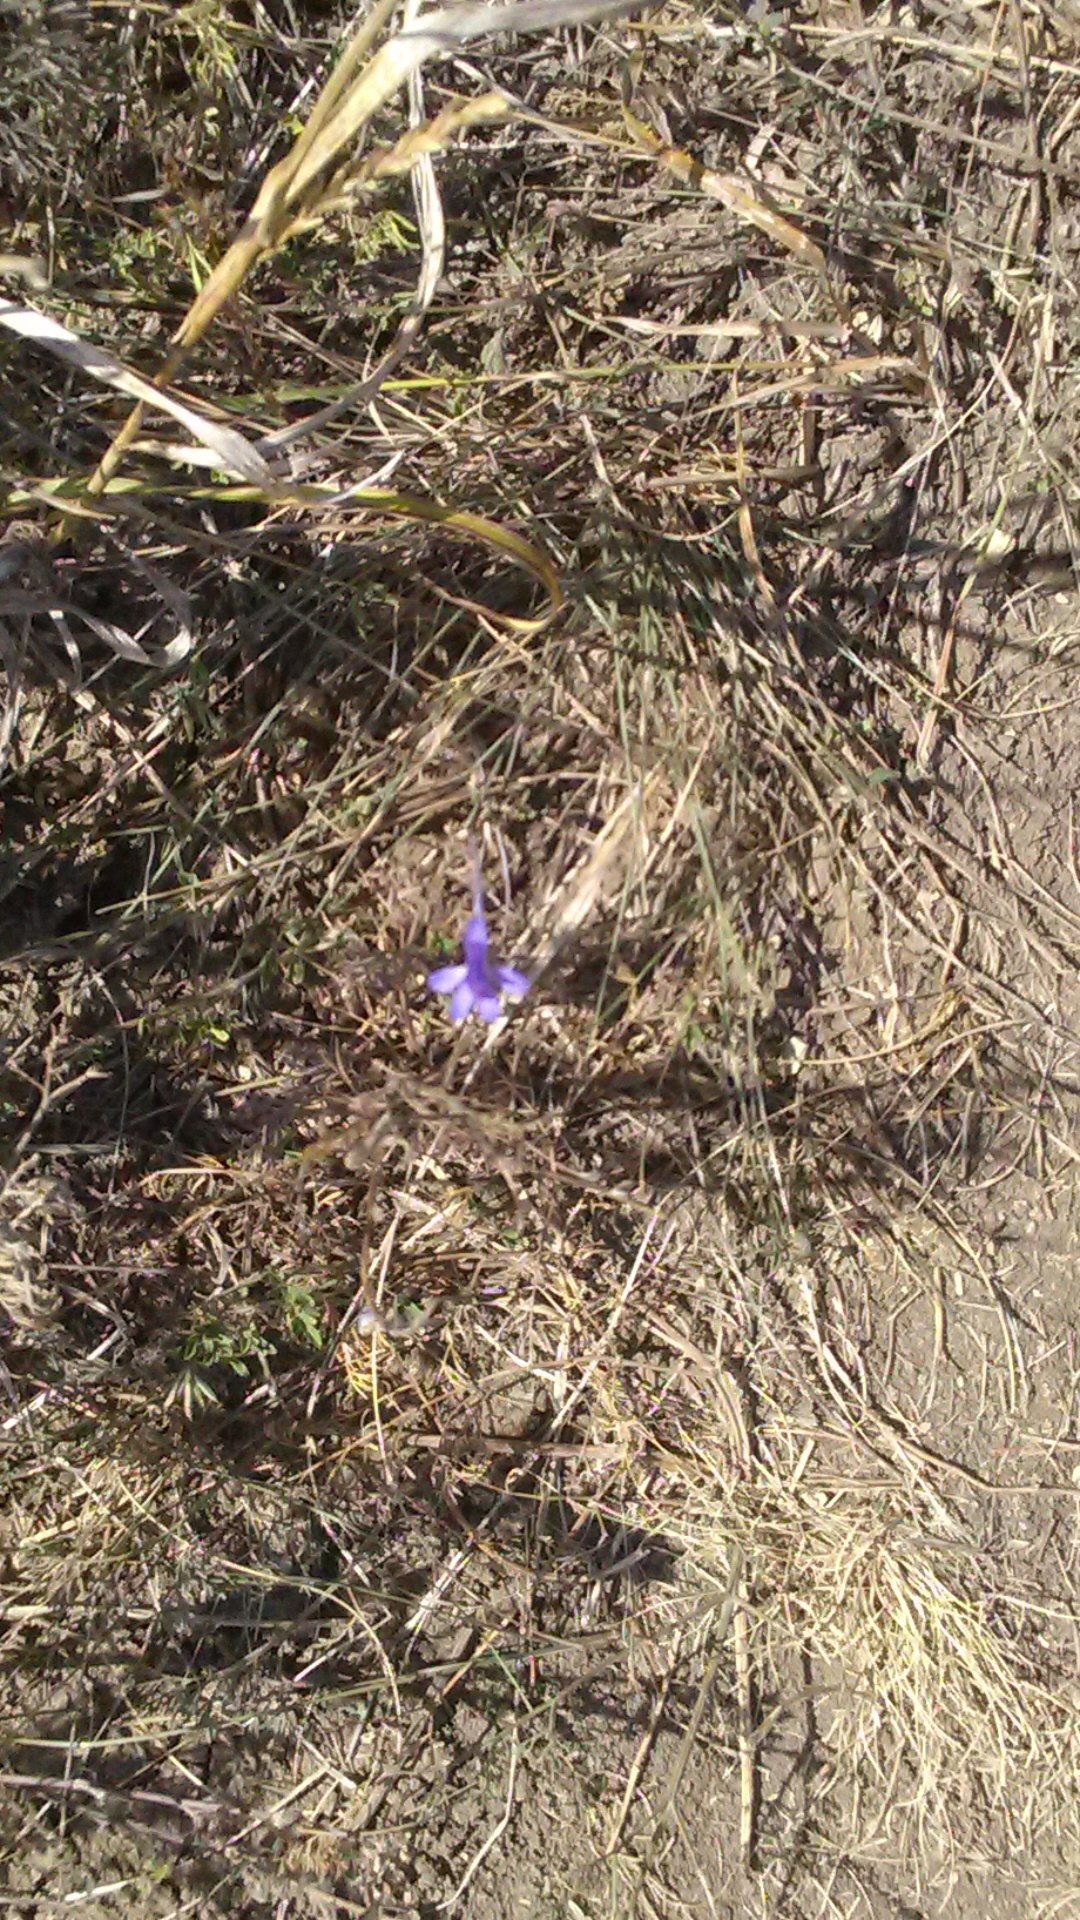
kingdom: Plantae
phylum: Tracheophyta
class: Magnoliopsida
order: Ranunculales
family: Ranunculaceae
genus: Delphinium
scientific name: Delphinium consolida
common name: Branching larkspur
